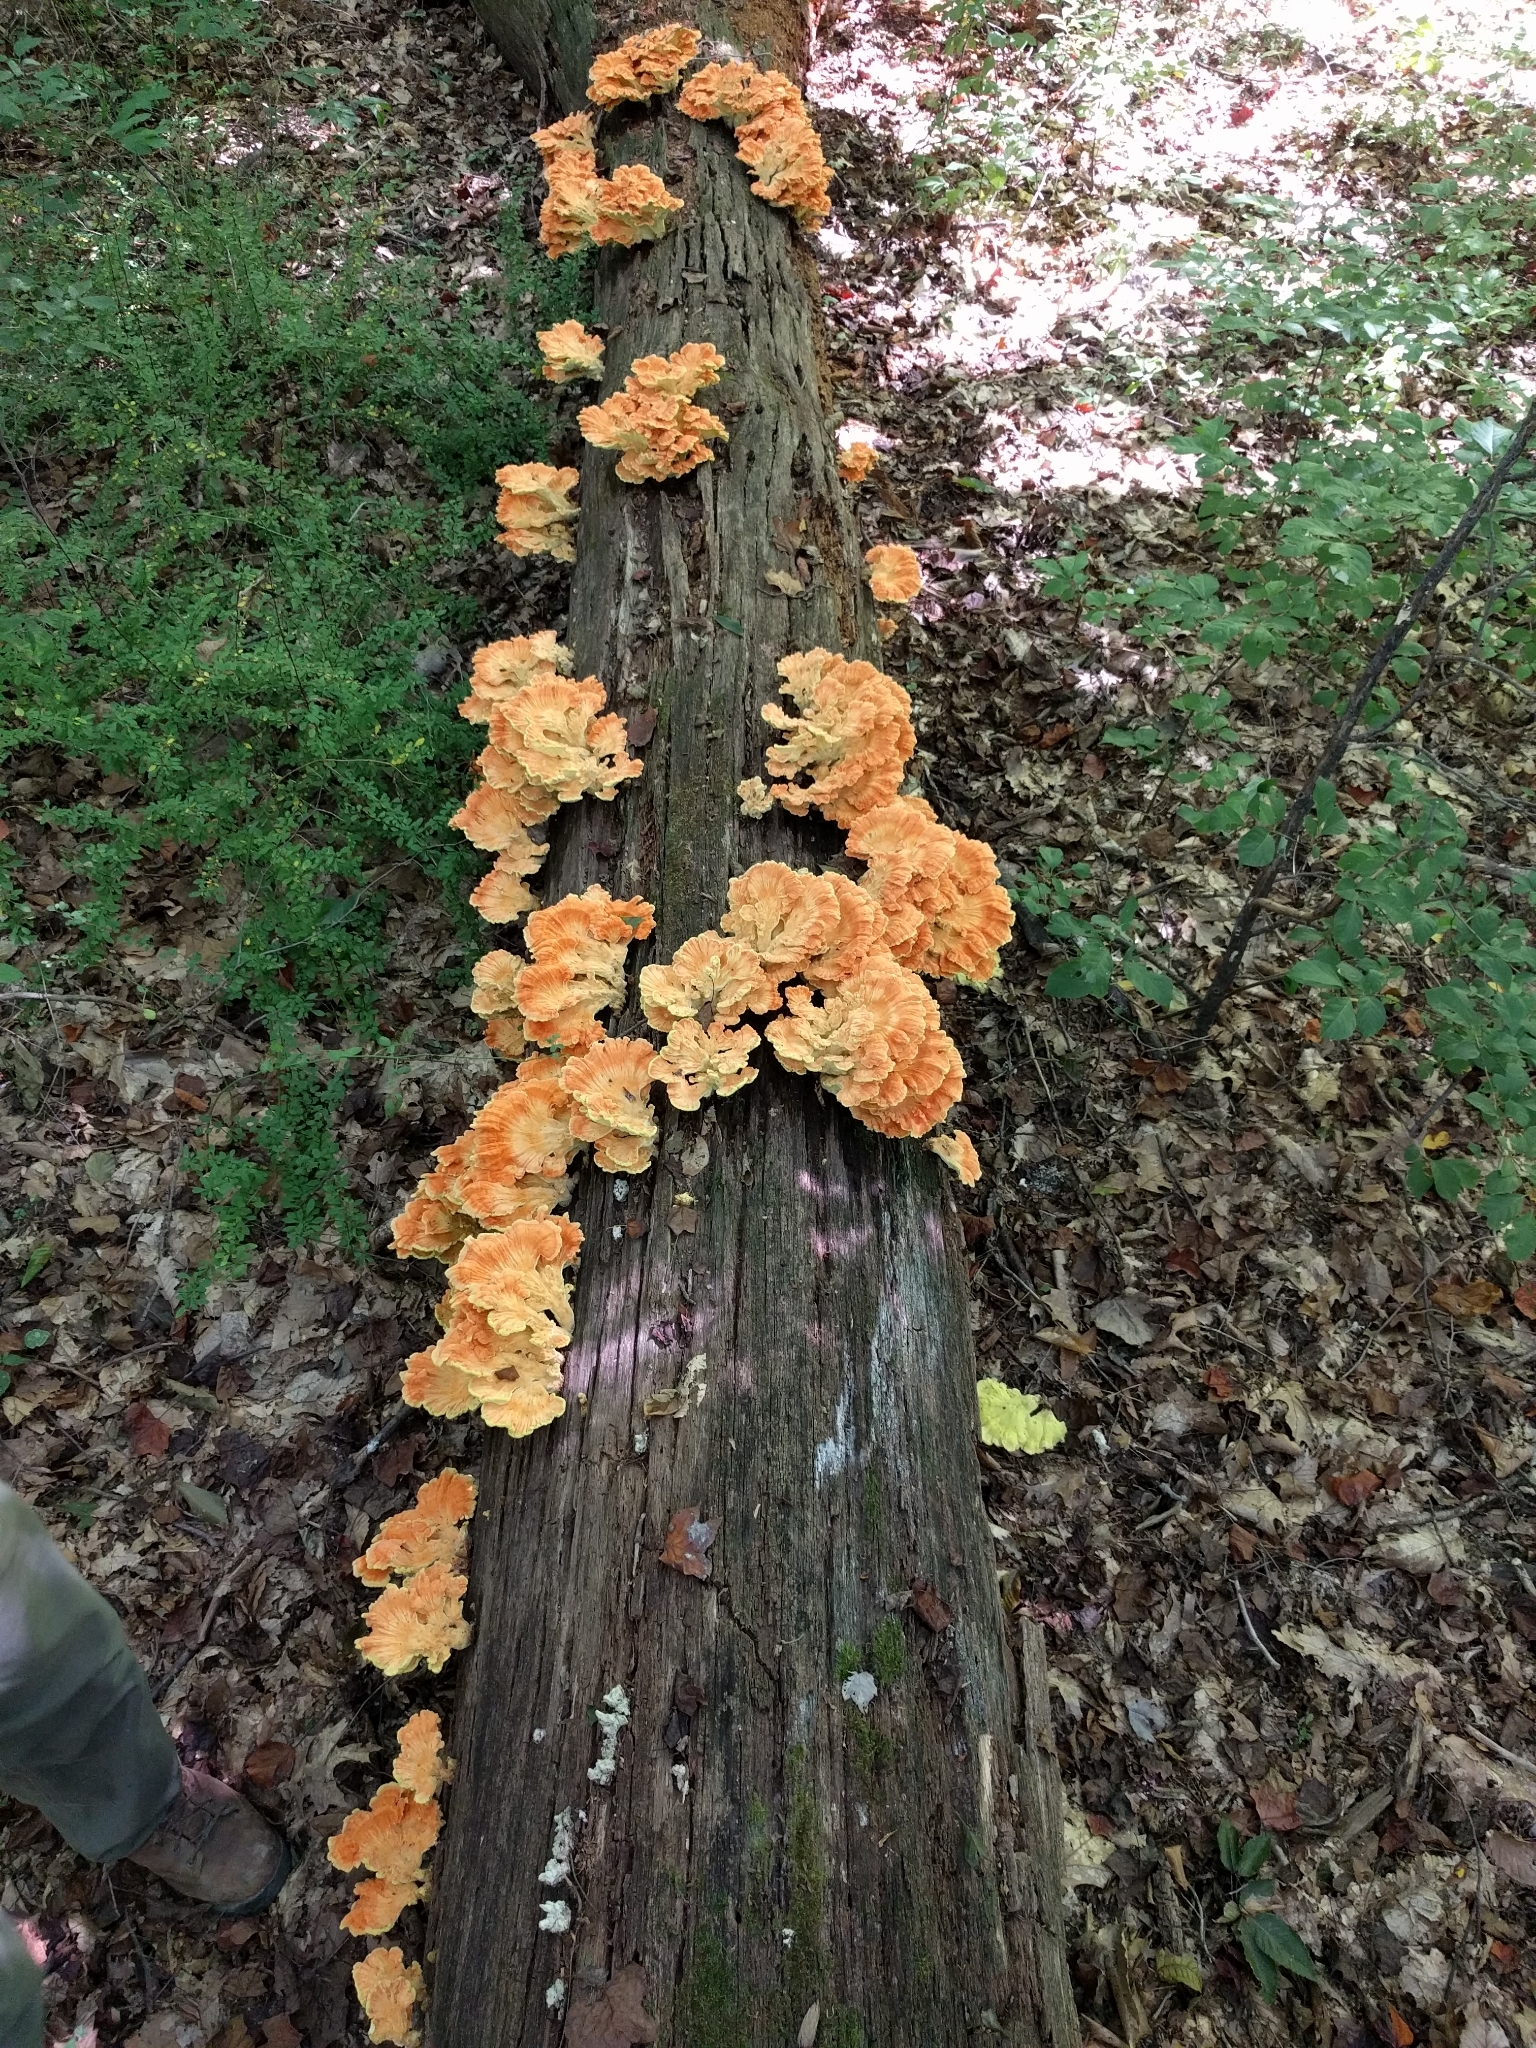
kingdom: Fungi
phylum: Basidiomycota
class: Agaricomycetes
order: Polyporales
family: Laetiporaceae
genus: Laetiporus
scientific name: Laetiporus sulphureus
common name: Chicken of the woods
